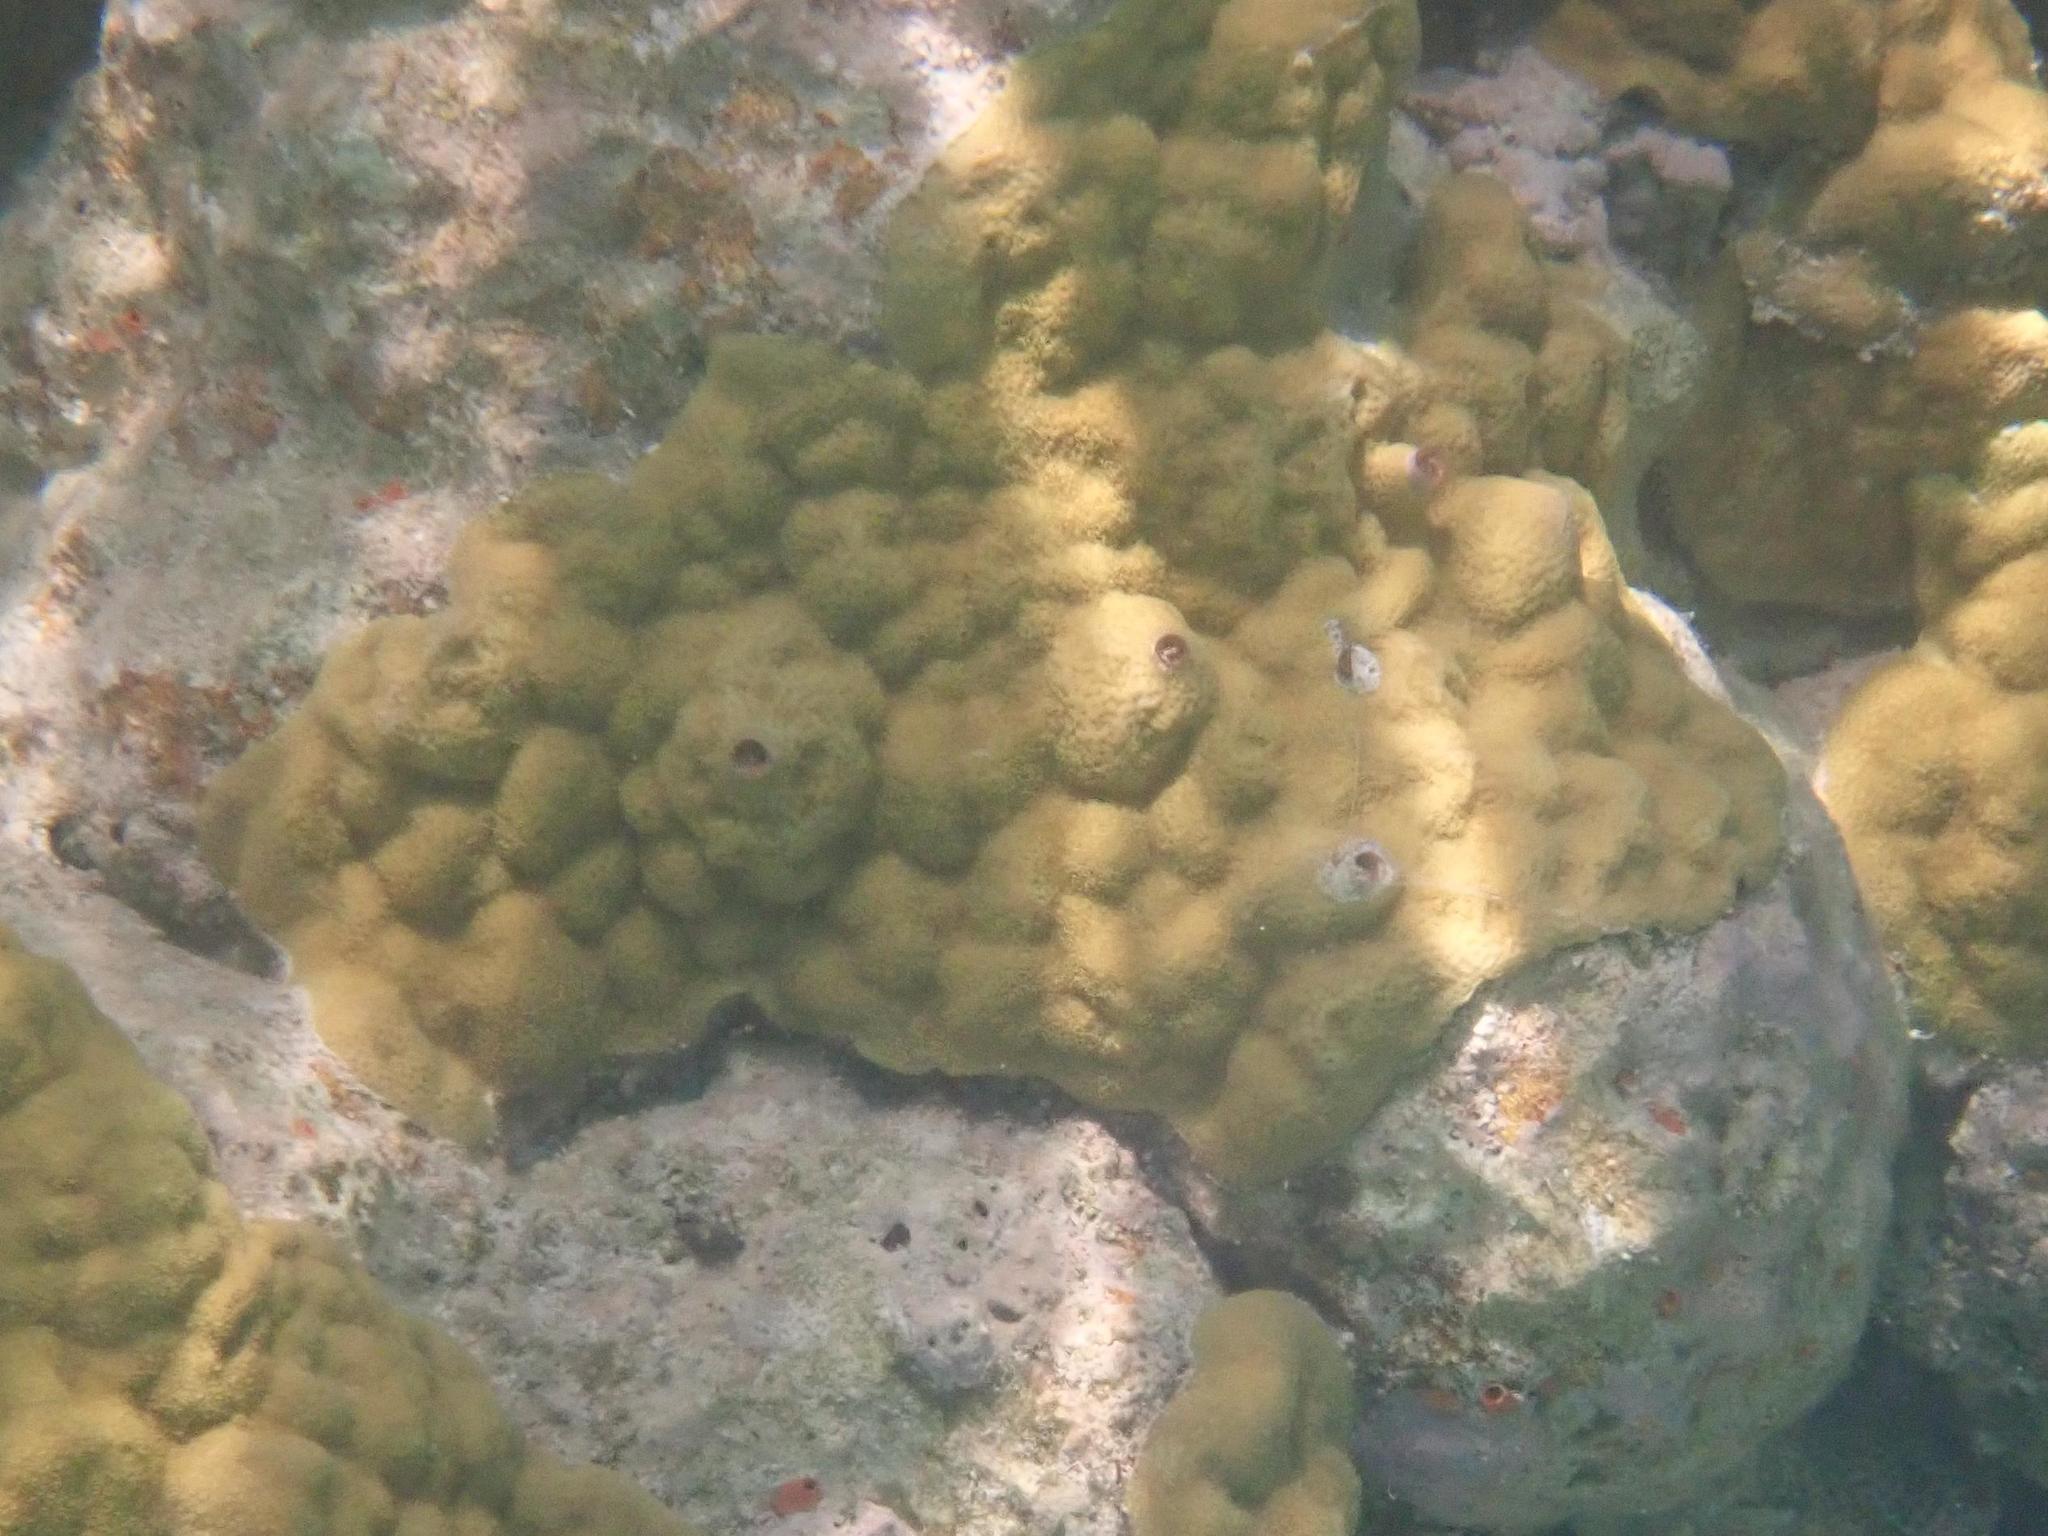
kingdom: Animalia
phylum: Cnidaria
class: Anthozoa
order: Scleractinia
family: Poritidae
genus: Porites
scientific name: Porites astreoides
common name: Mustard hill coral
